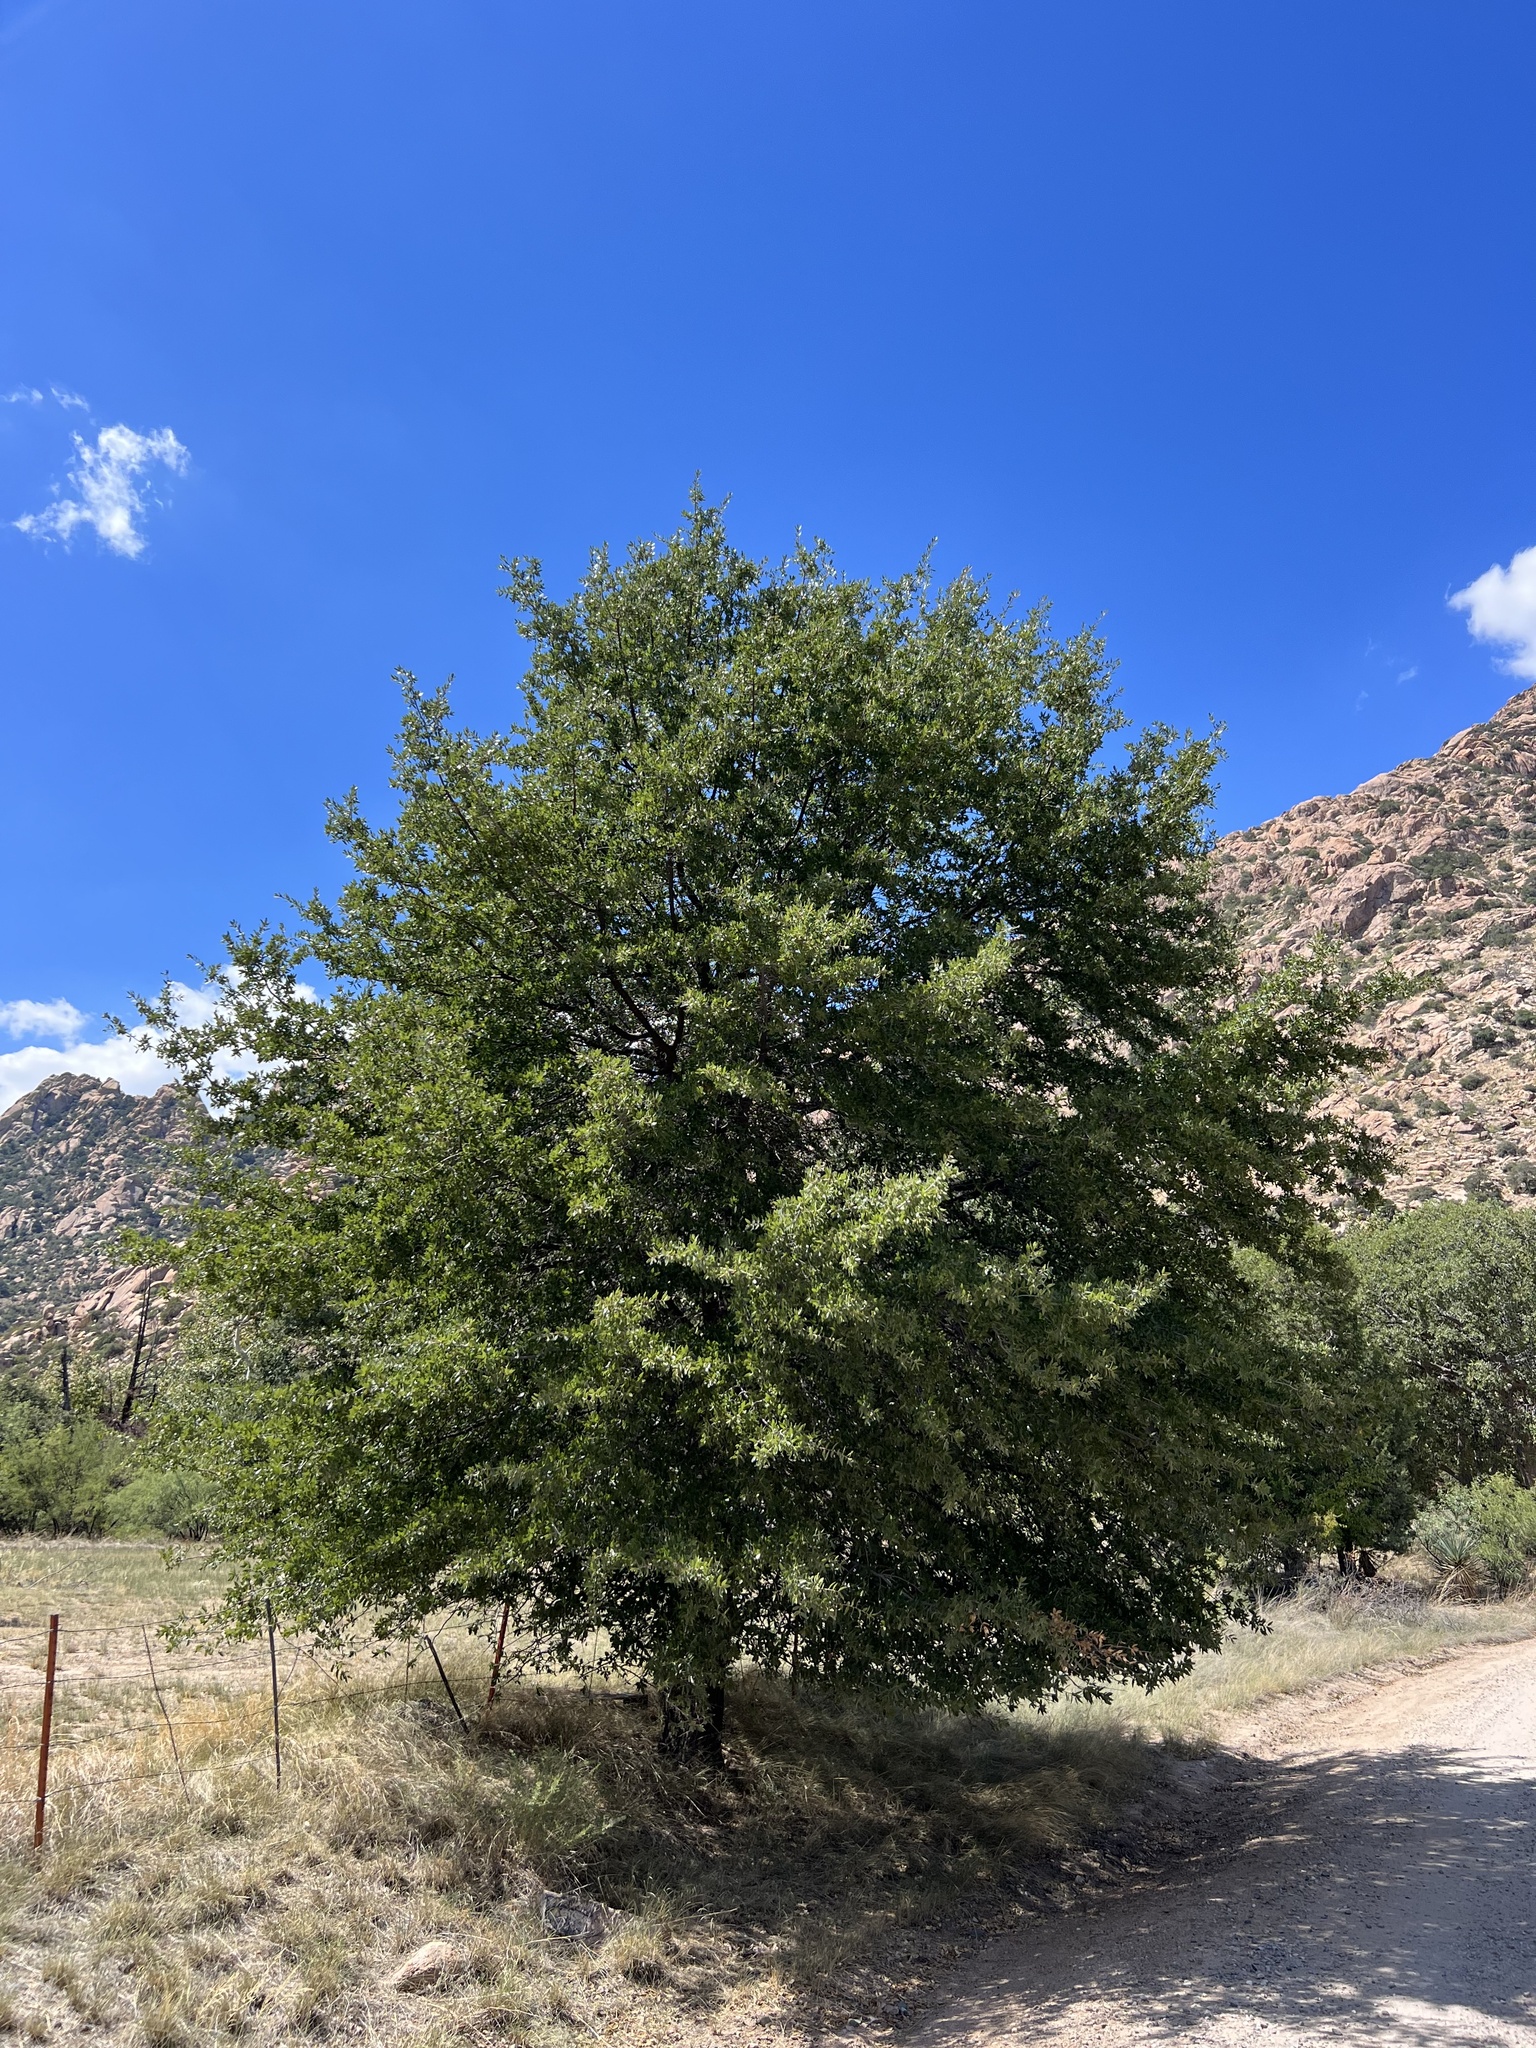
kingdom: Plantae
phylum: Tracheophyta
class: Magnoliopsida
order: Fagales
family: Fagaceae
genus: Quercus
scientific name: Quercus emoryi
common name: Emory oak
